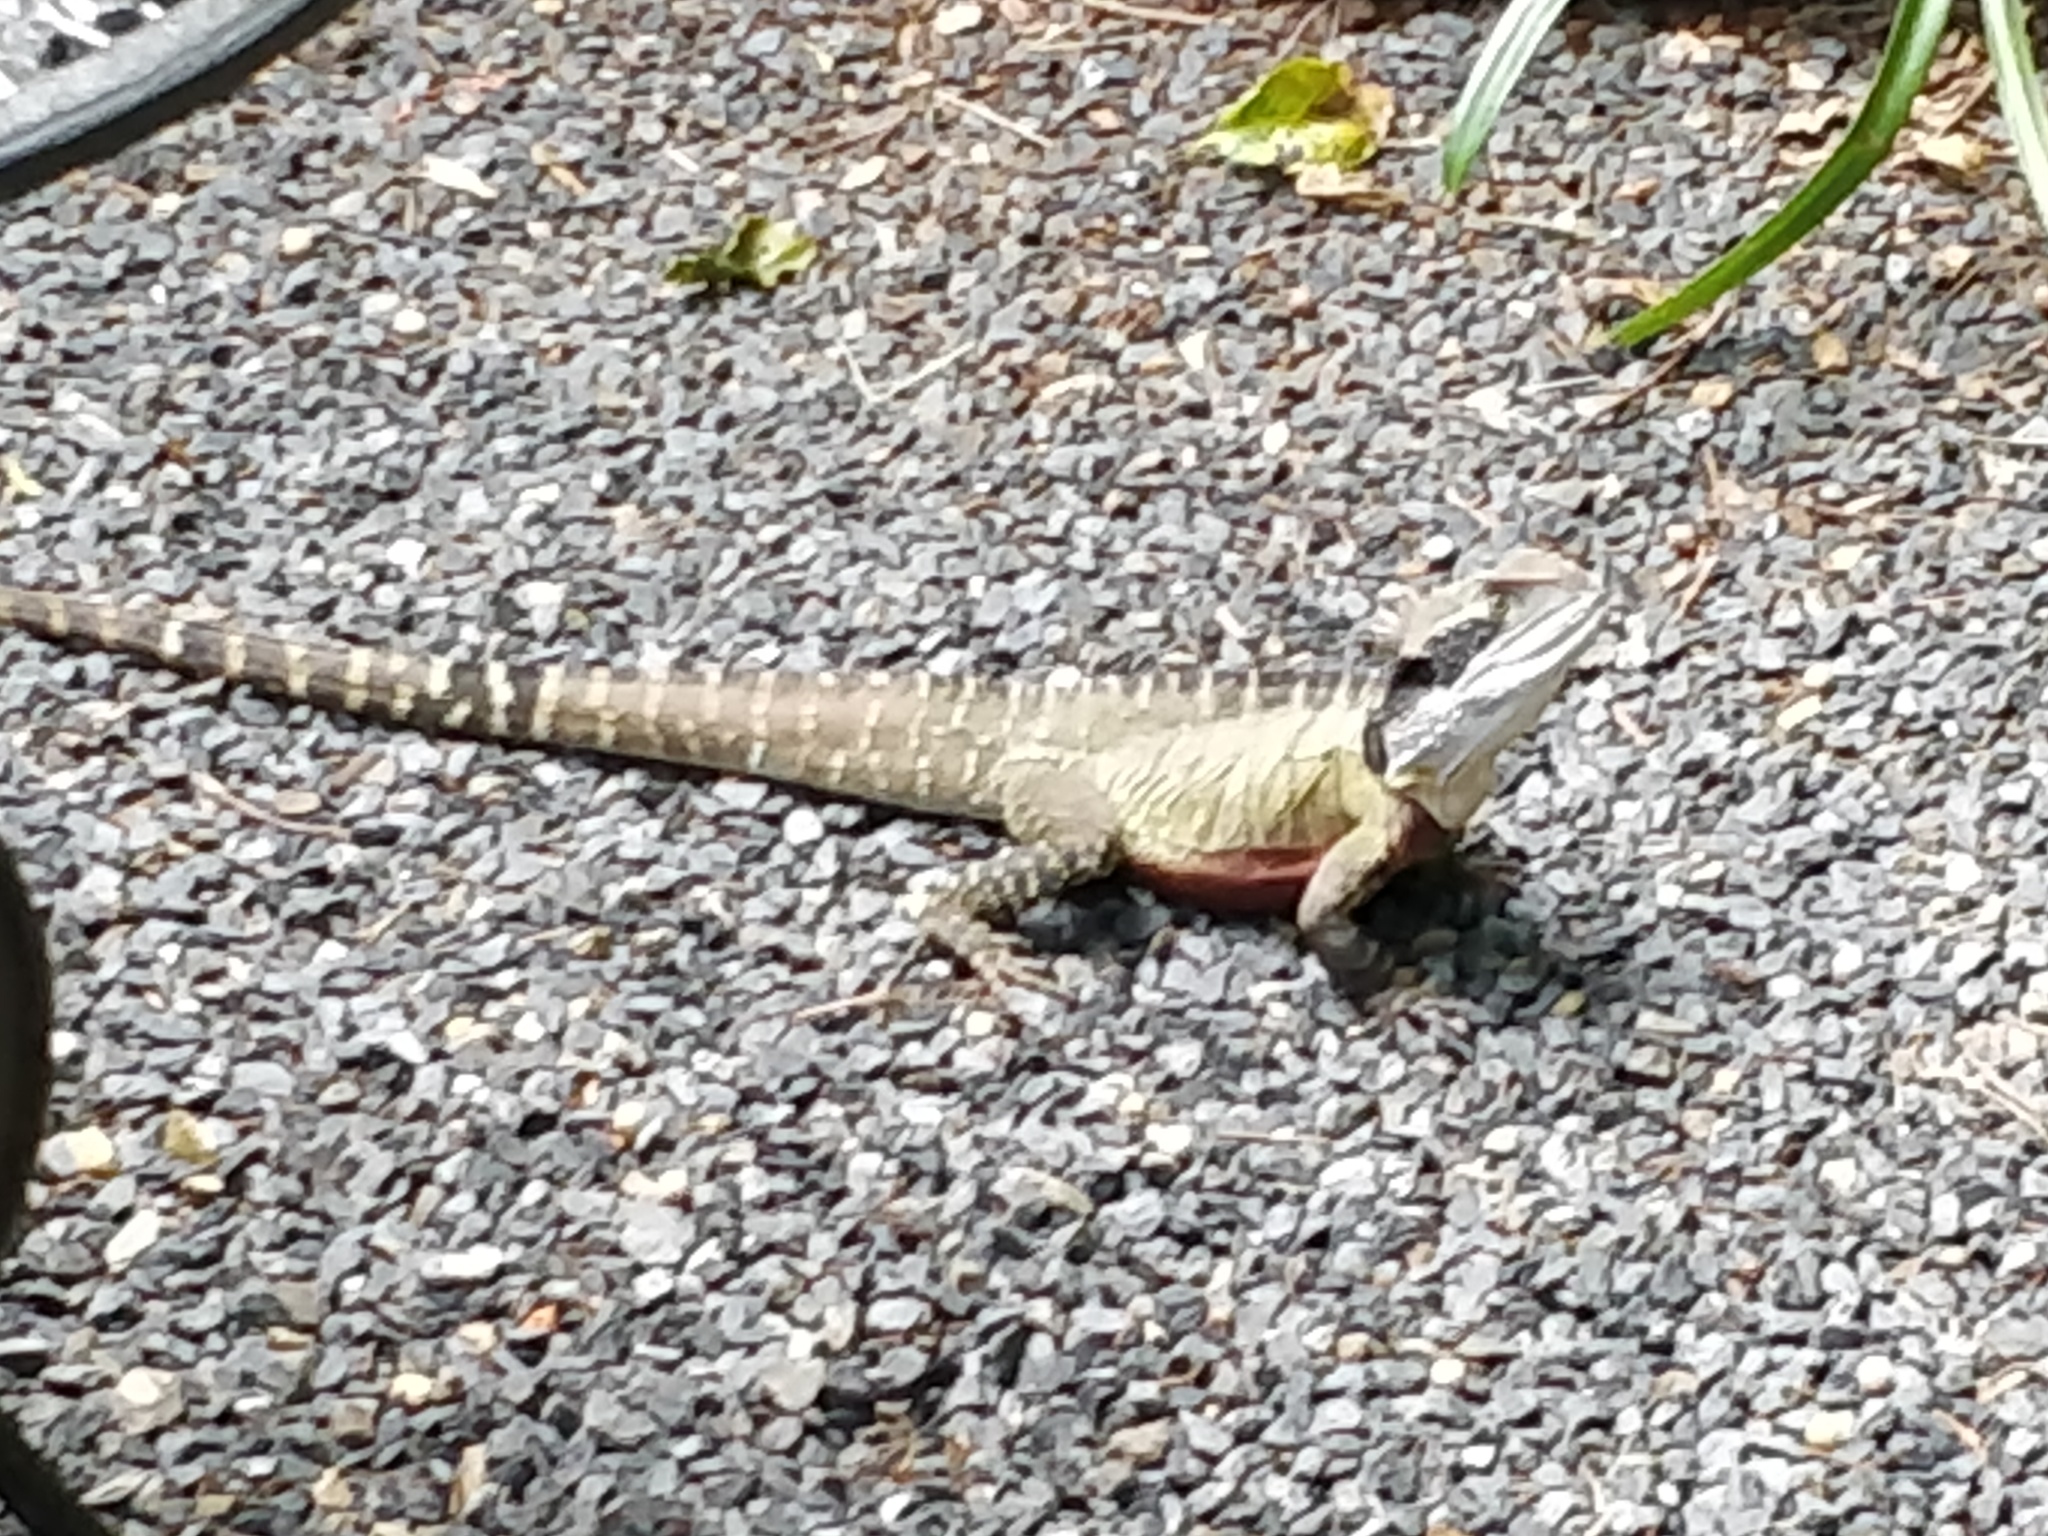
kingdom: Animalia
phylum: Chordata
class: Squamata
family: Agamidae
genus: Intellagama
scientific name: Intellagama lesueurii
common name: Eastern water dragon
